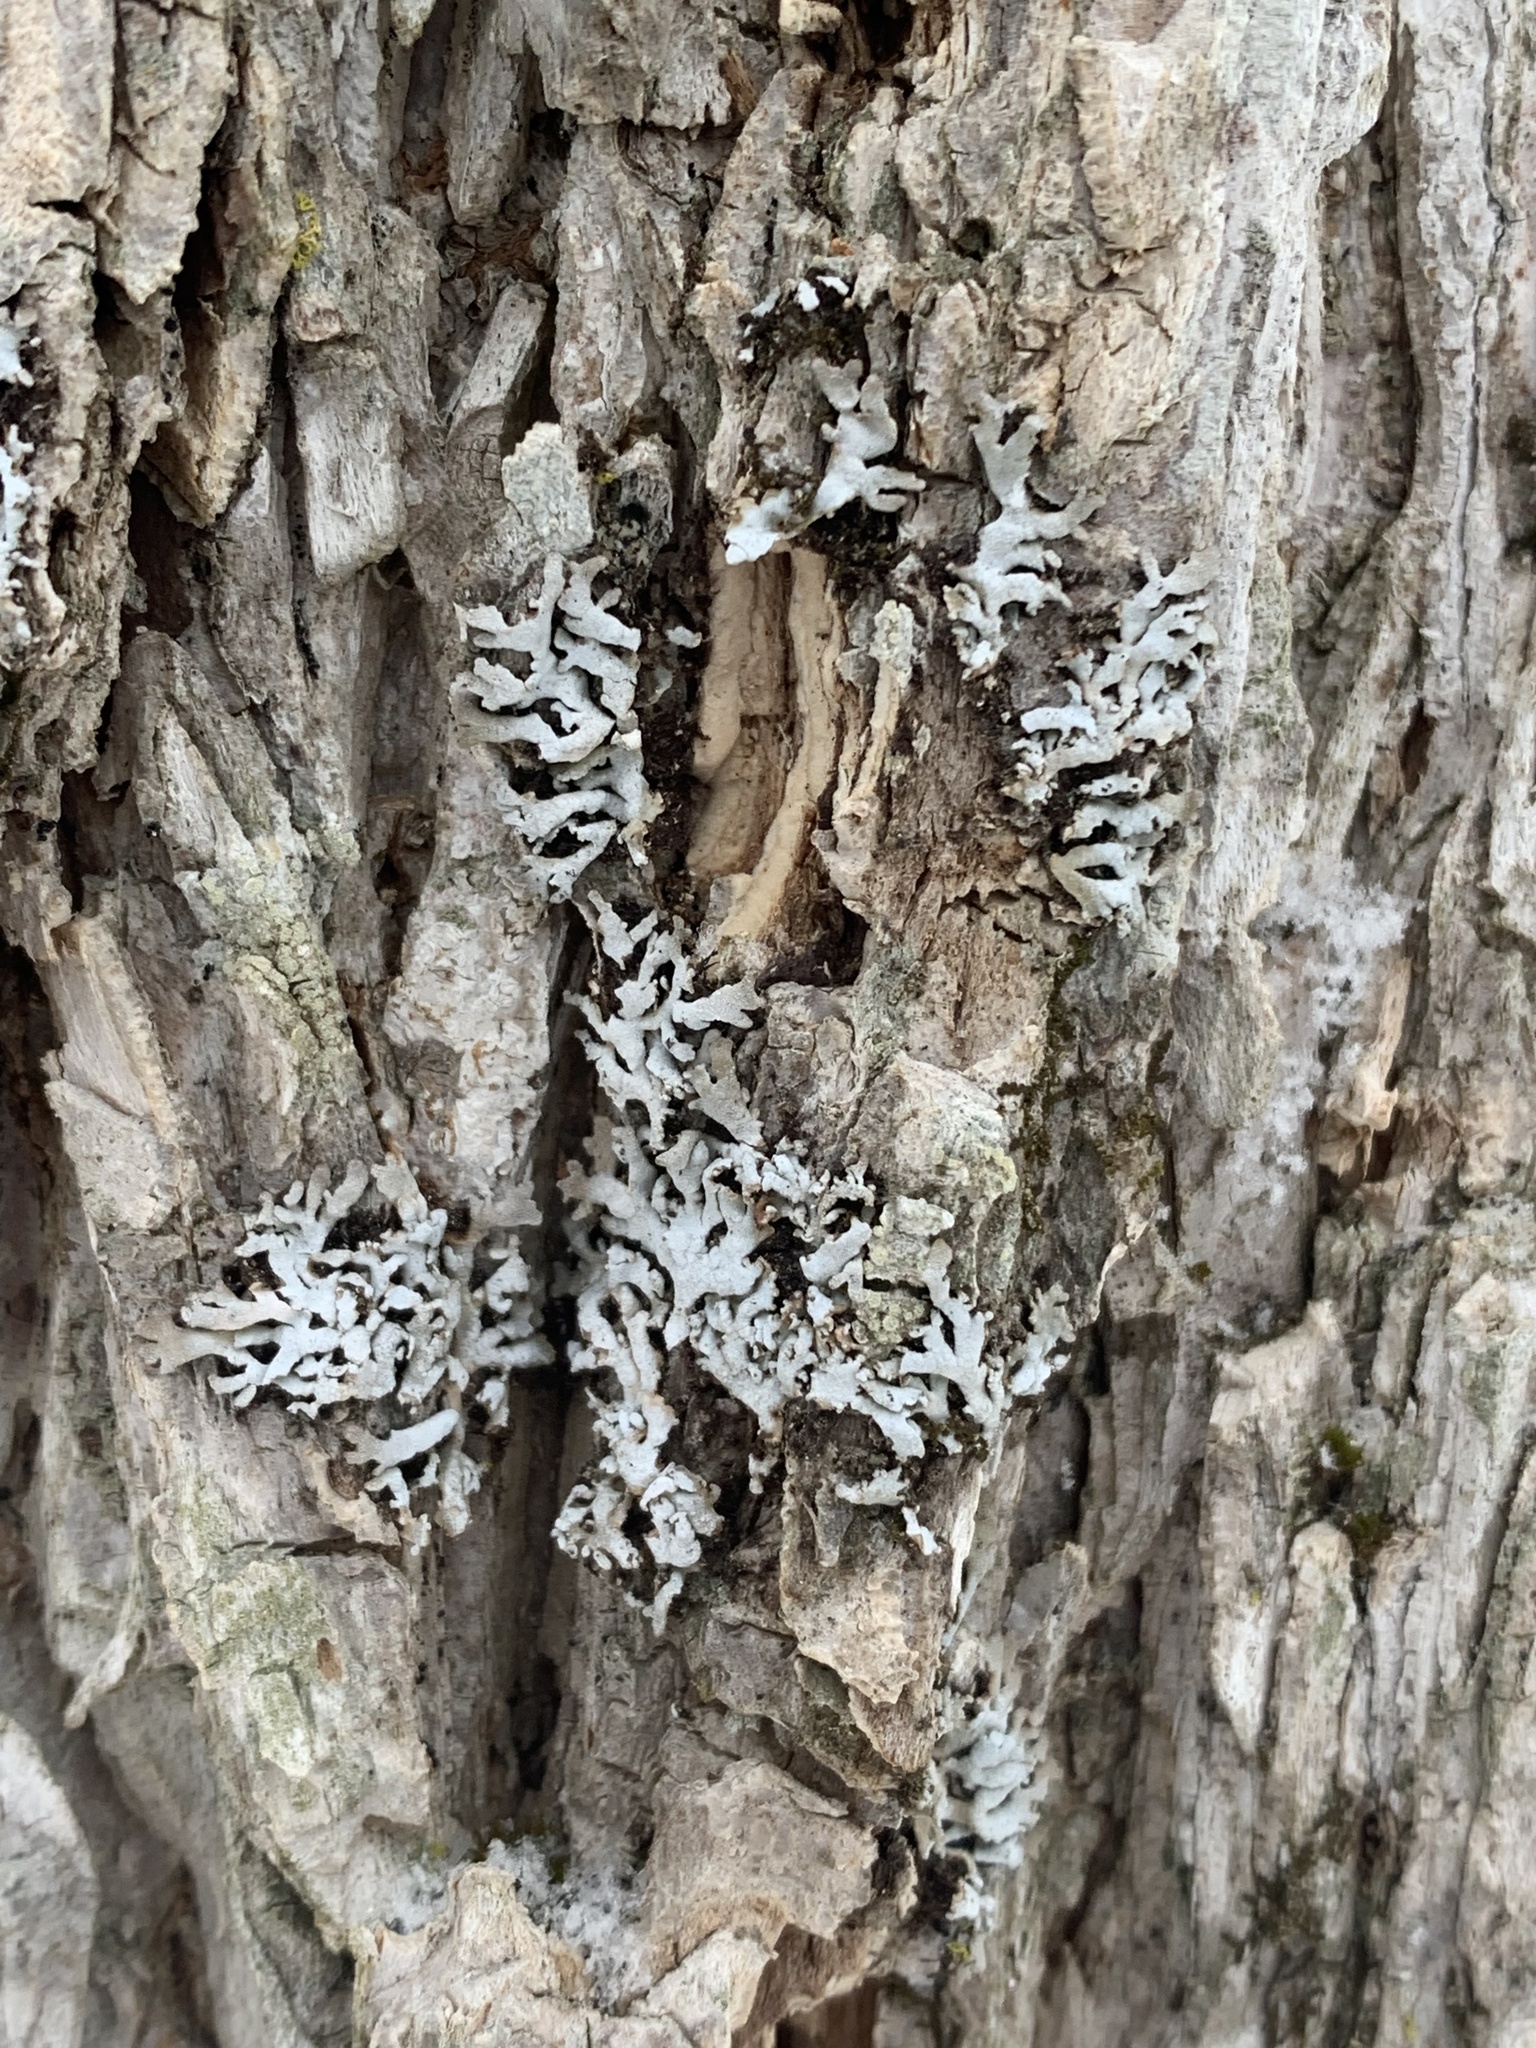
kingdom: Fungi
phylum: Ascomycota
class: Lecanoromycetes
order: Caliciales
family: Physciaceae
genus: Physconia
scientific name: Physconia subpallida
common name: Pale-belly frost lichen
